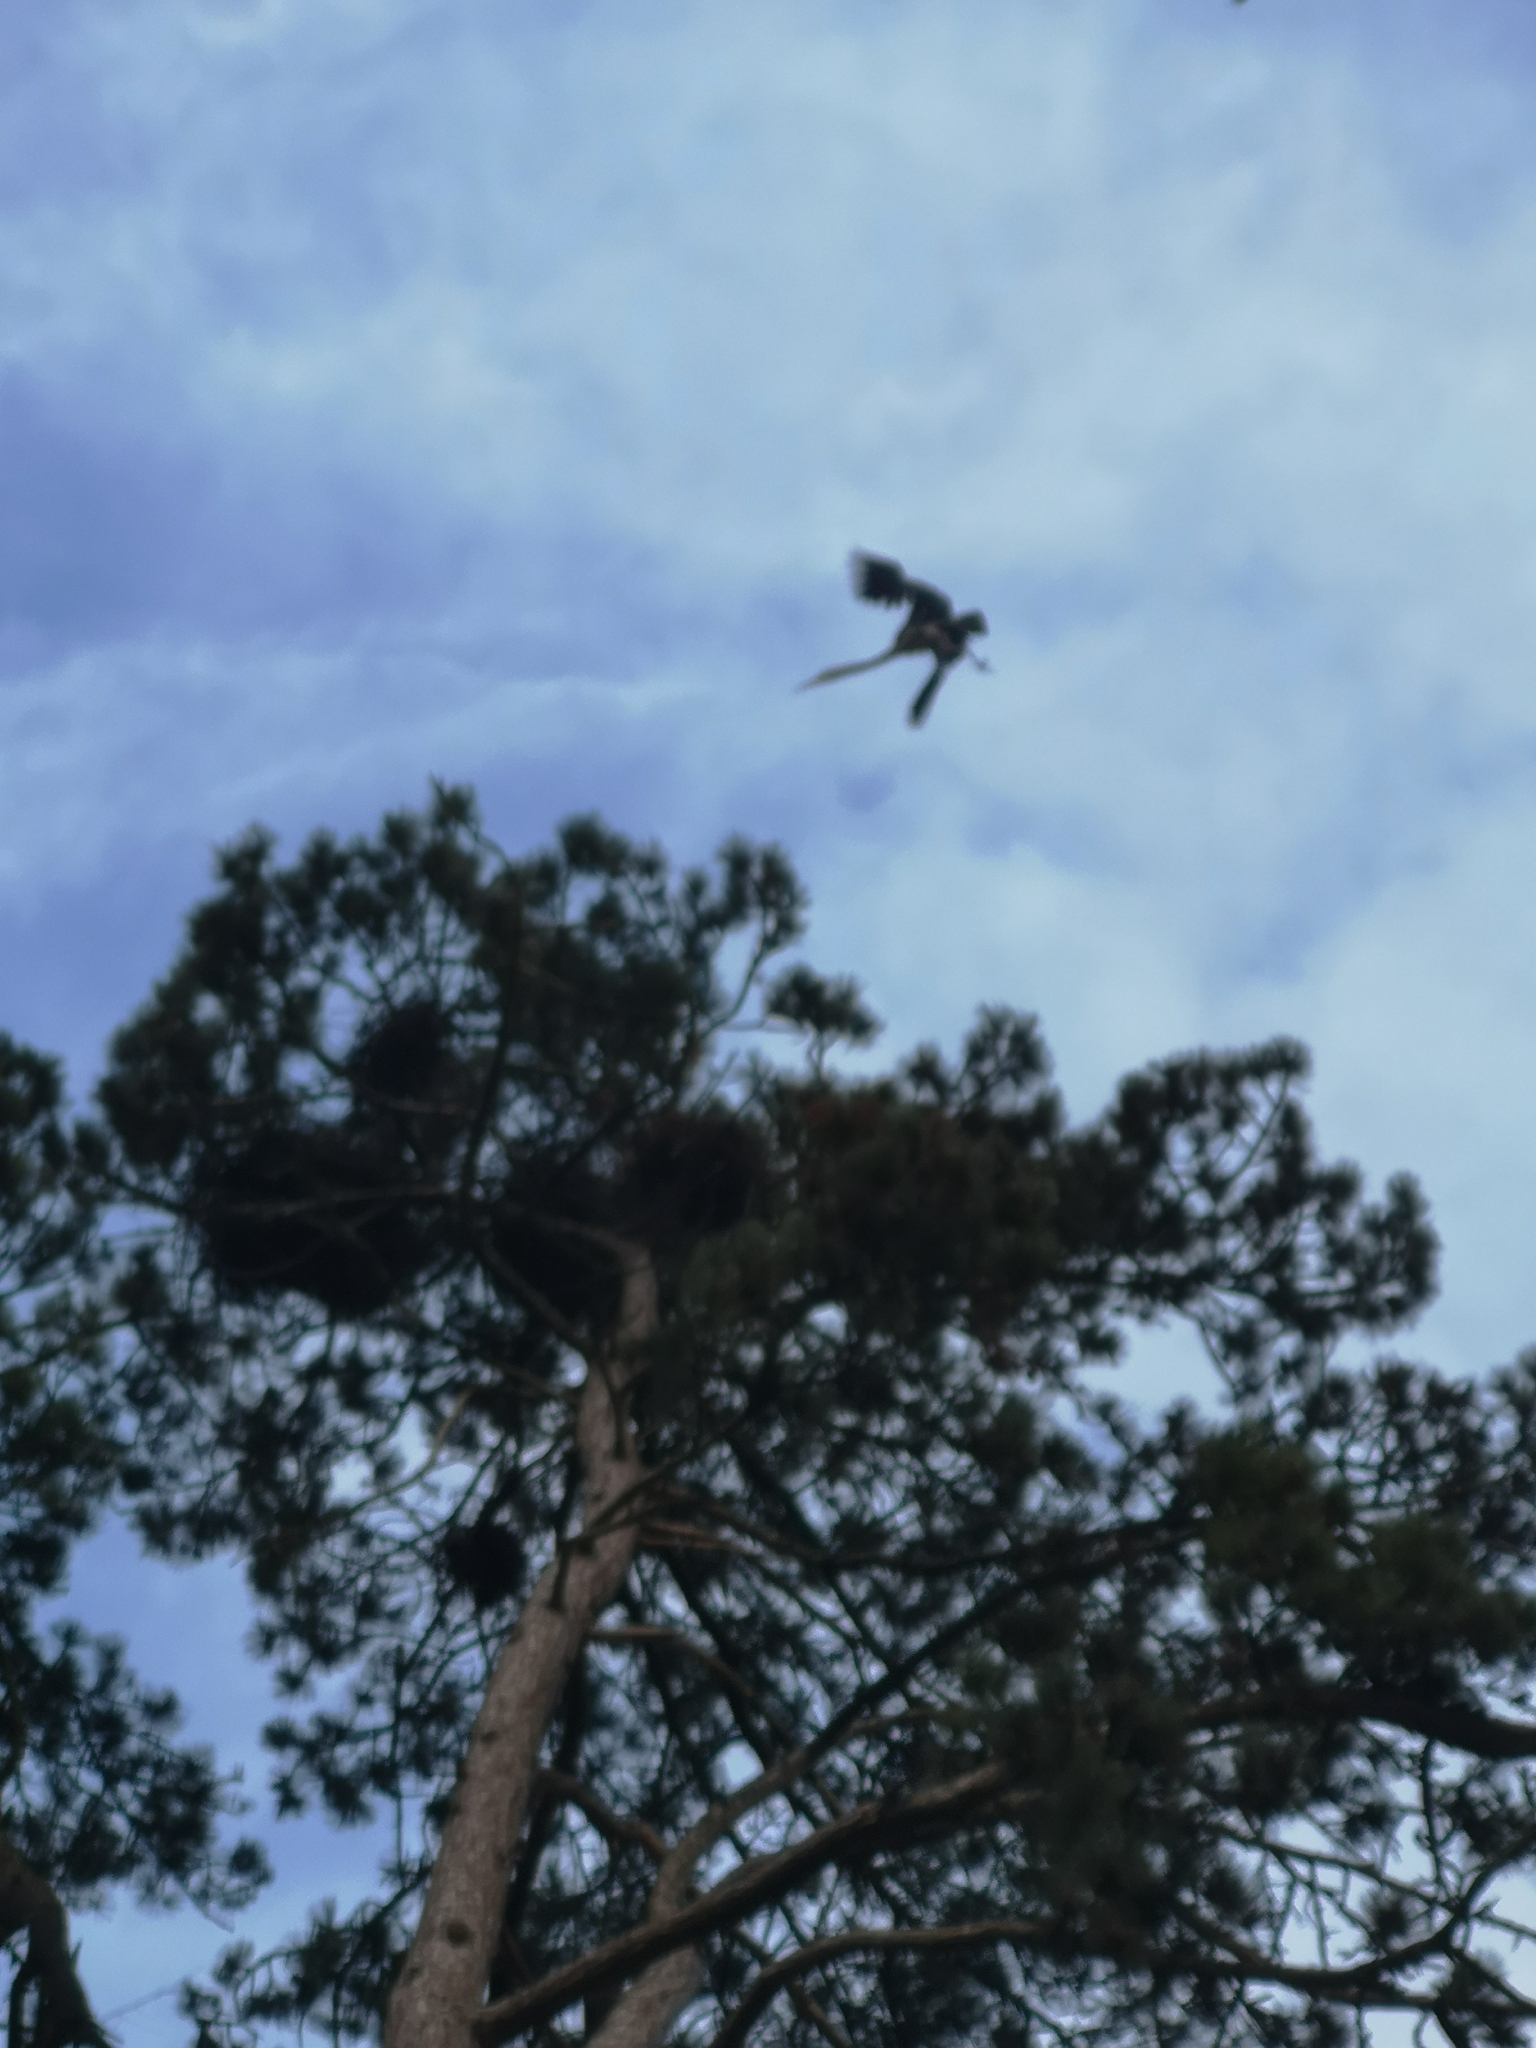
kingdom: Animalia
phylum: Chordata
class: Aves
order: Pelecaniformes
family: Ardeidae
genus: Ardea
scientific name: Ardea cinerea
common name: Grey heron
